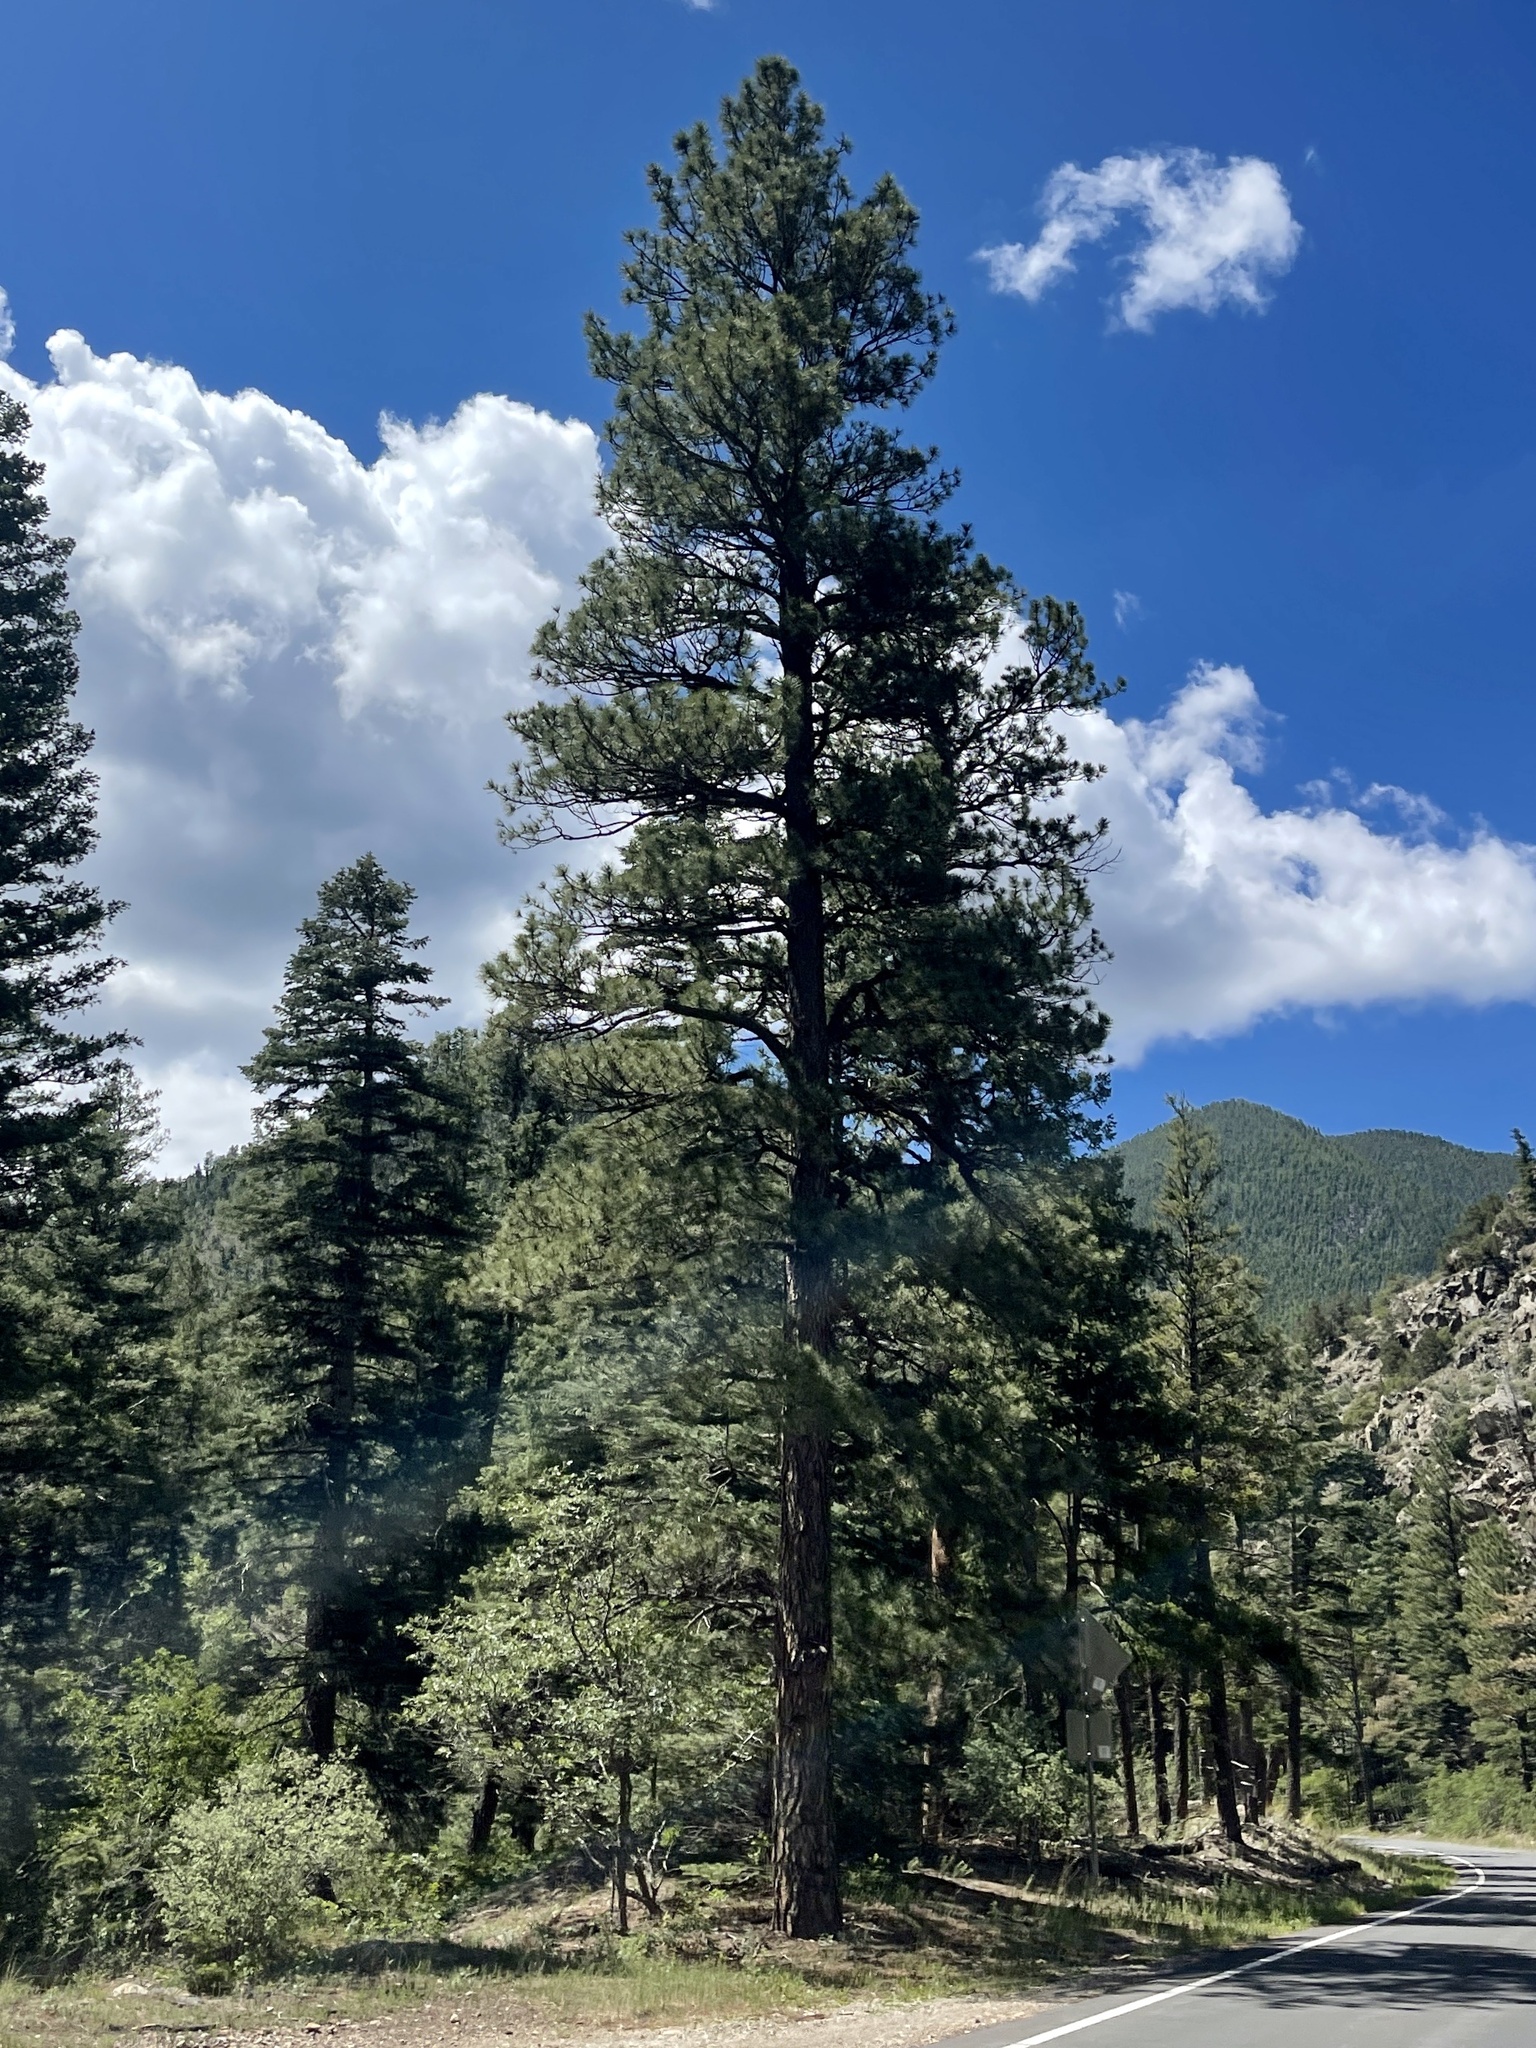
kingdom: Plantae
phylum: Tracheophyta
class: Pinopsida
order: Pinales
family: Pinaceae
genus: Pinus
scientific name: Pinus ponderosa
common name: Western yellow-pine
